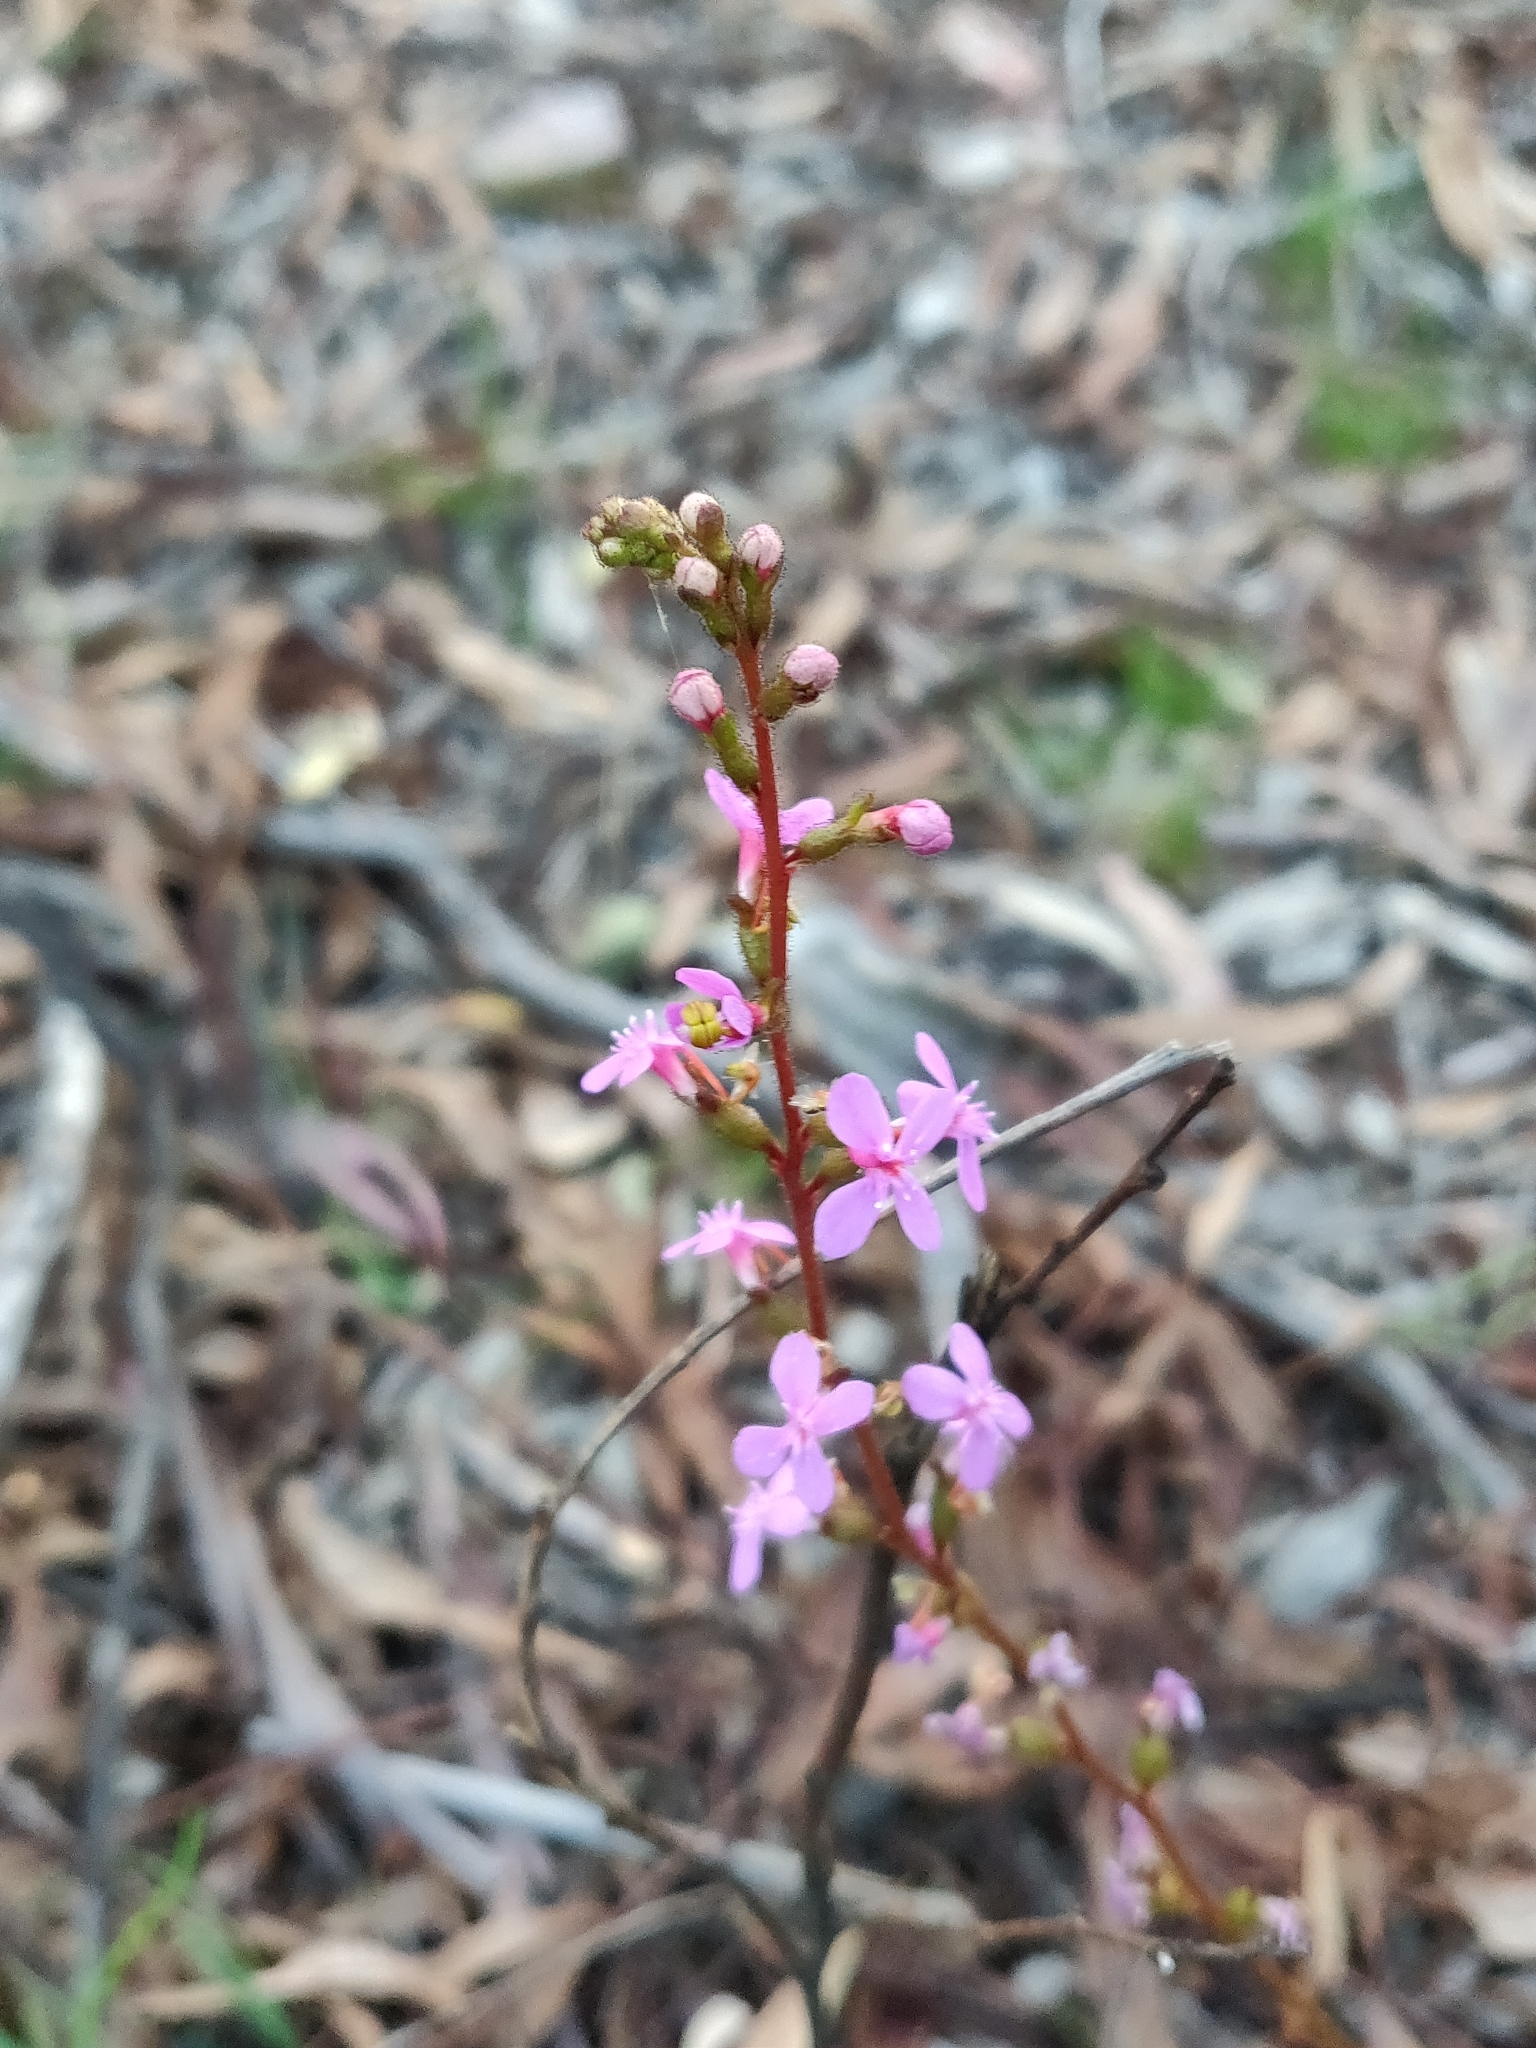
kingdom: Plantae
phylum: Tracheophyta
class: Magnoliopsida
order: Asterales
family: Stylidiaceae
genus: Stylidium
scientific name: Stylidium graminifolium
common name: Grass triggerplant
